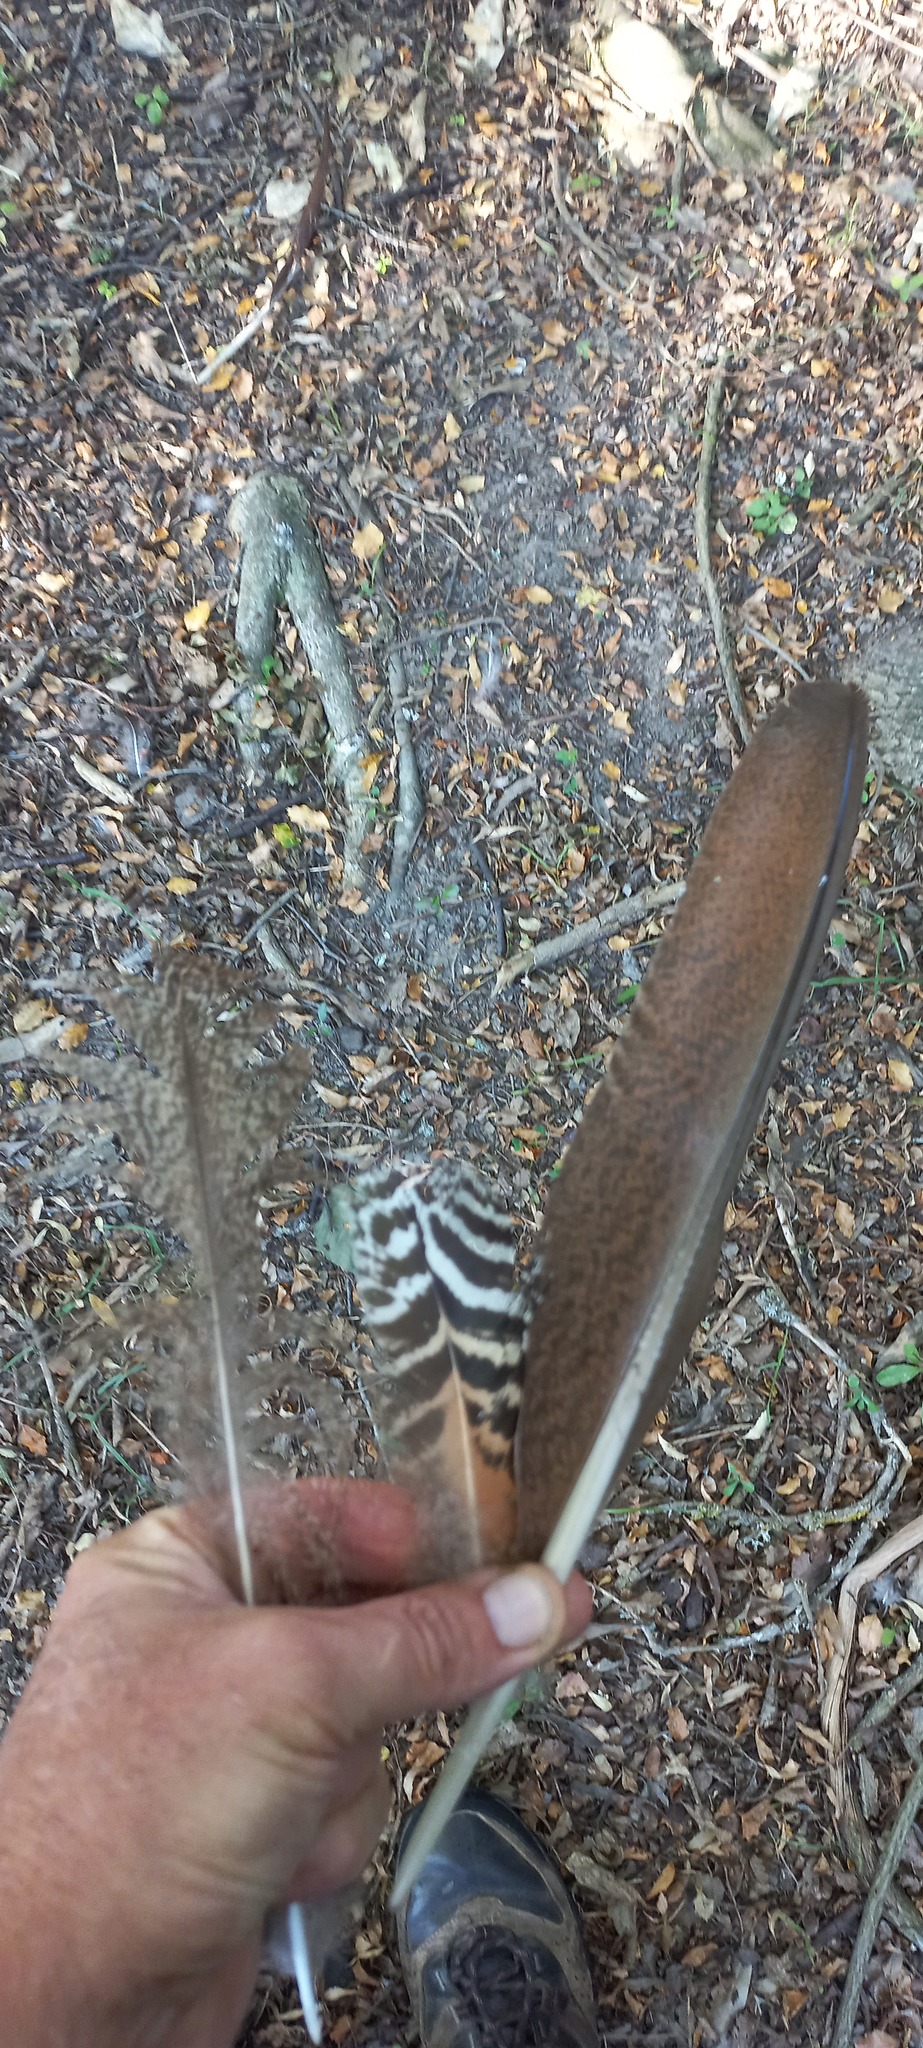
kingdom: Animalia
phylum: Chordata
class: Aves
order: Galliformes
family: Phasianidae
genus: Pavo
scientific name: Pavo cristatus
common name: Indian peafowl
